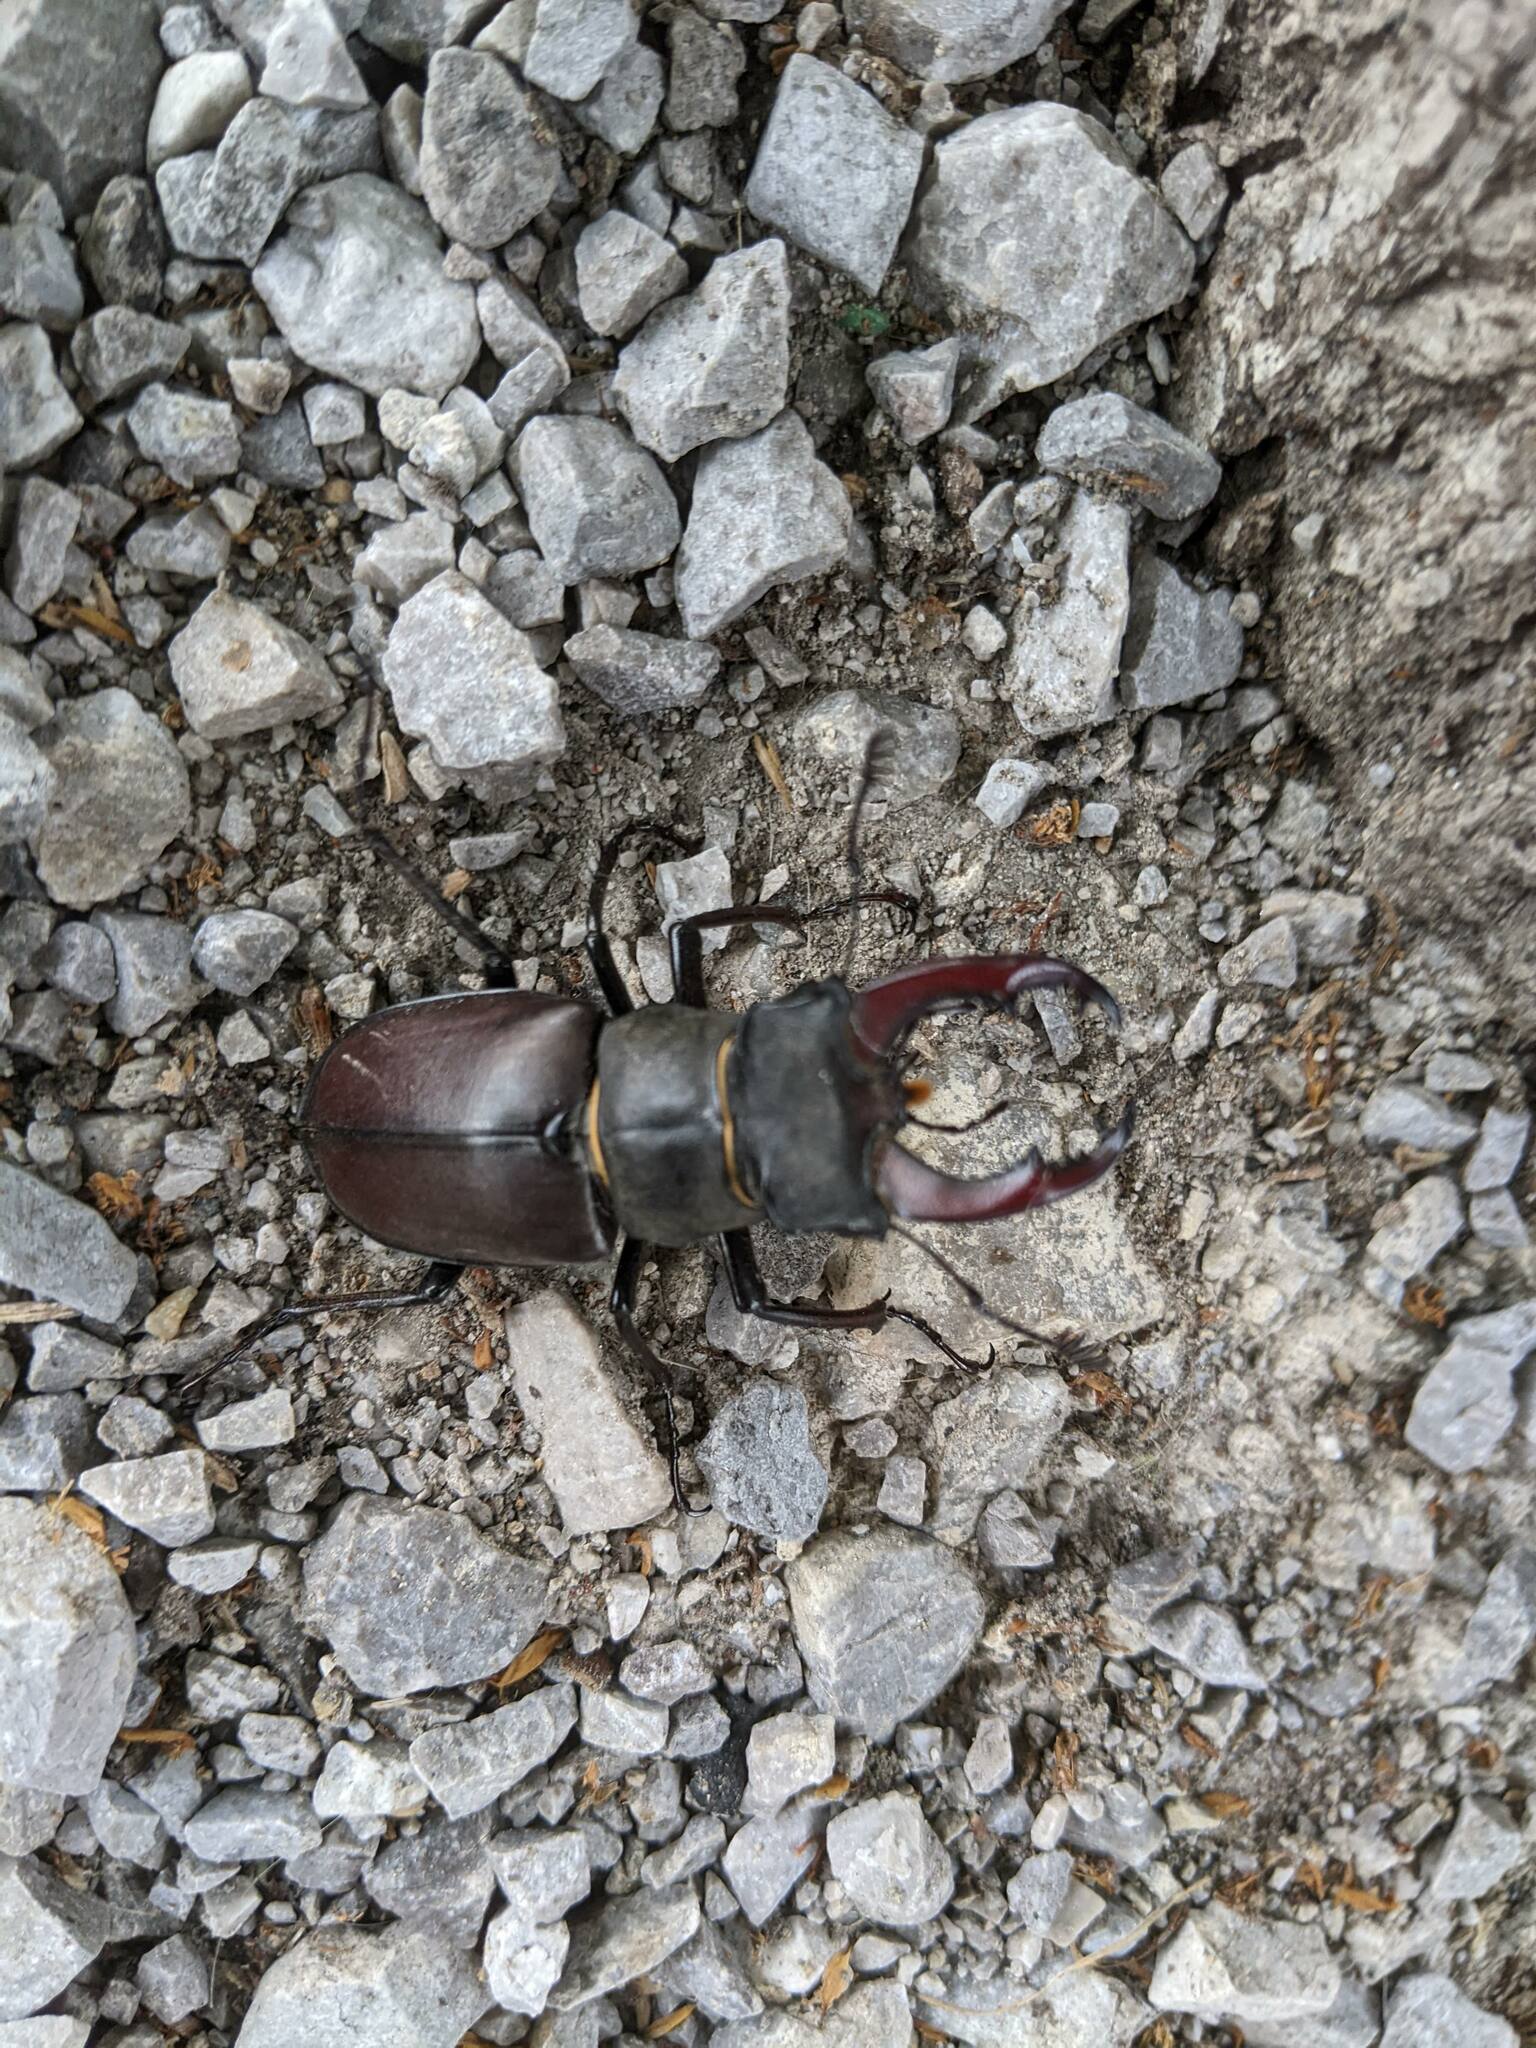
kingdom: Animalia
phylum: Arthropoda
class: Insecta
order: Coleoptera
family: Lucanidae
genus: Lucanus
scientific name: Lucanus cervus
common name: Stag beetle
